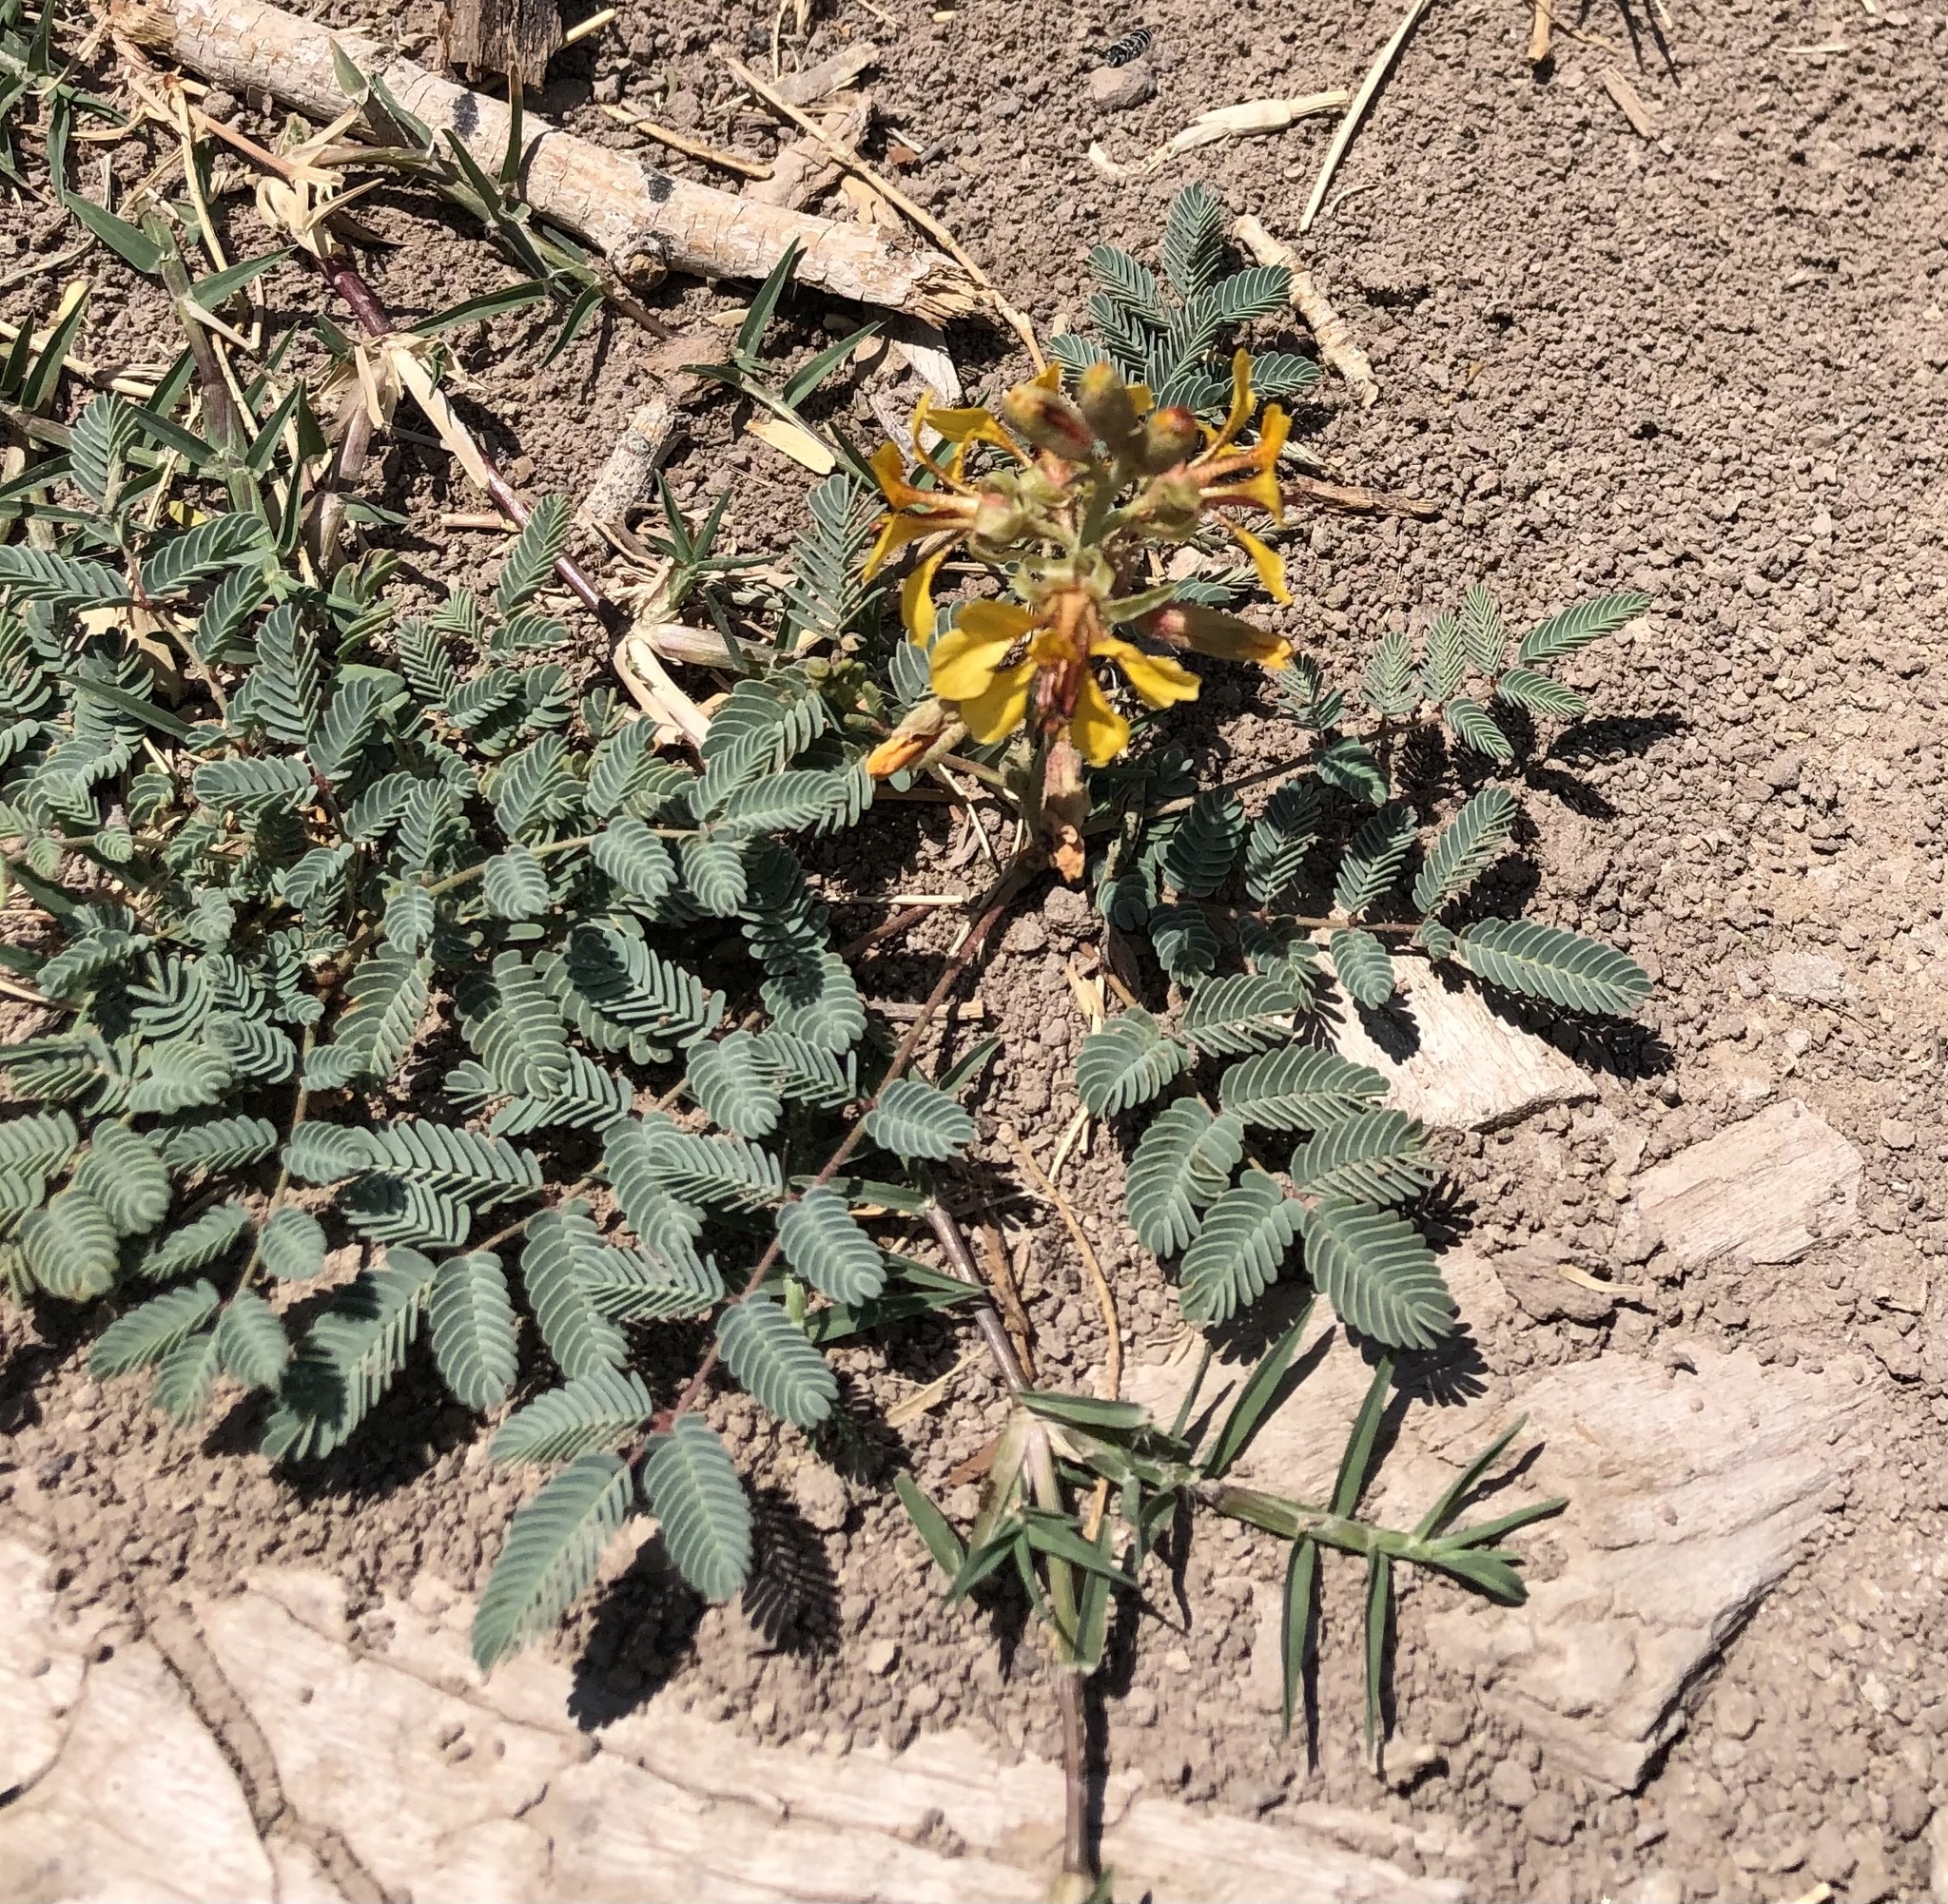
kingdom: Plantae
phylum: Tracheophyta
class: Magnoliopsida
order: Fabales
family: Fabaceae
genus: Hoffmannseggia
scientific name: Hoffmannseggia glauca
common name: Pignut
